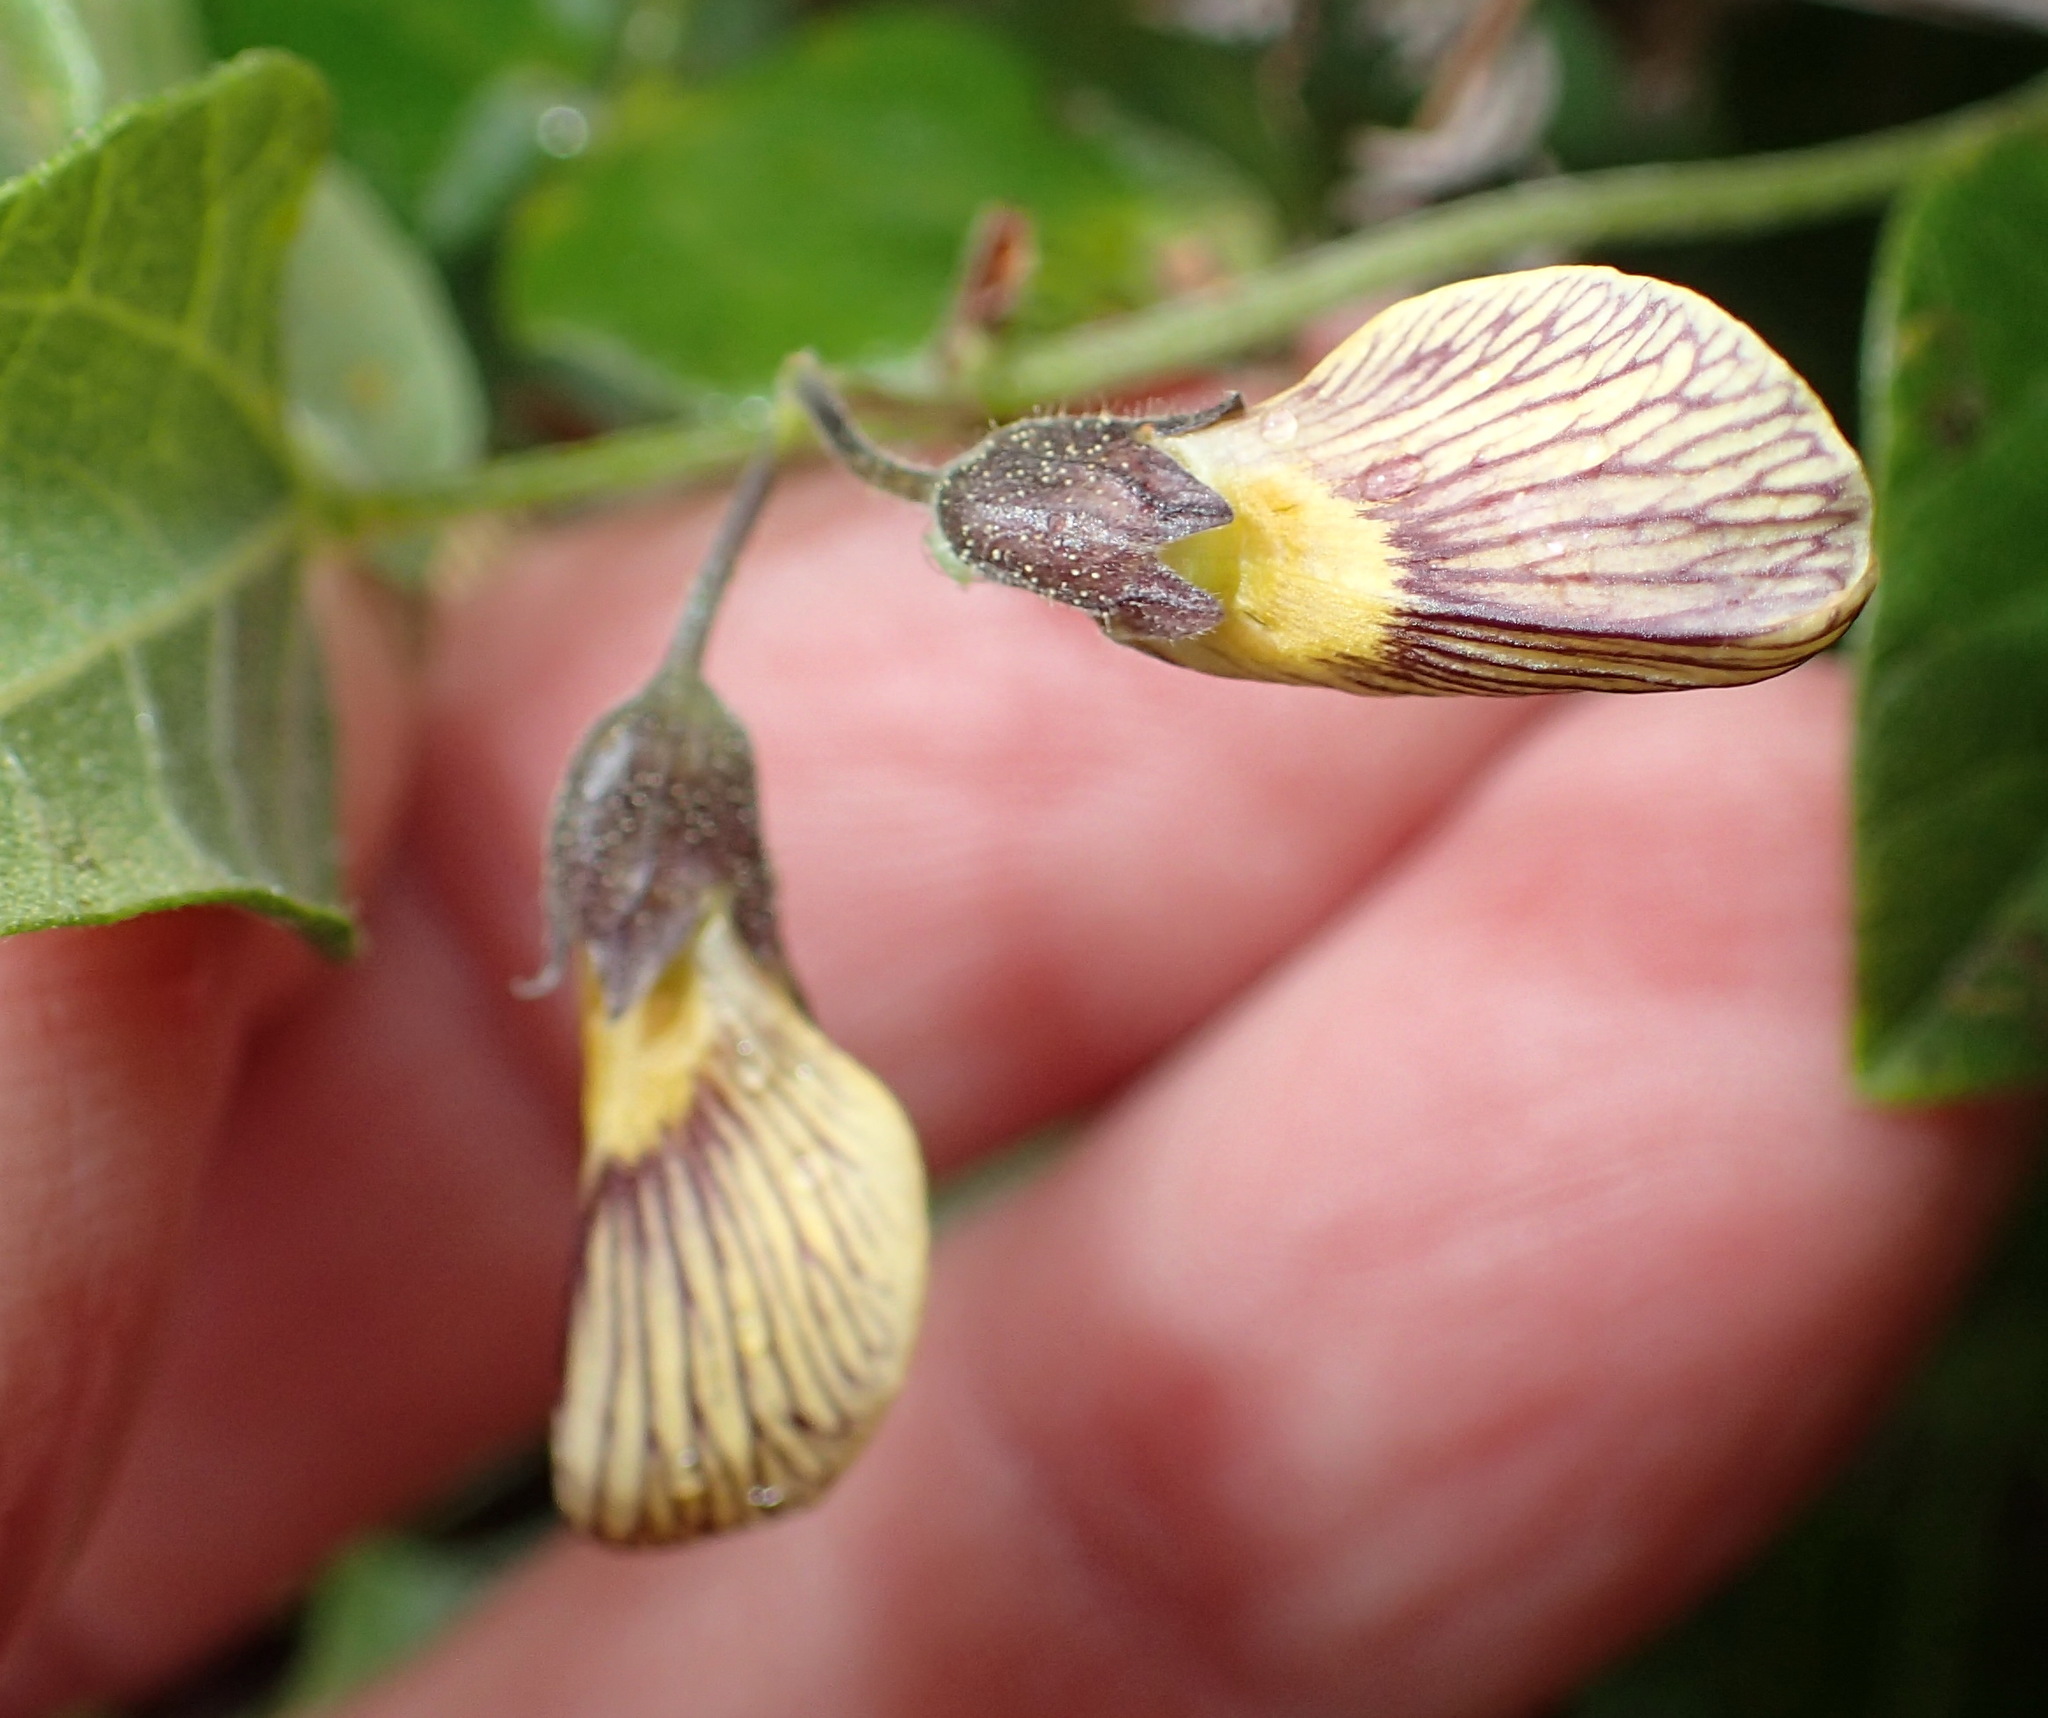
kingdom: Plantae
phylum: Tracheophyta
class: Magnoliopsida
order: Fabales
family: Fabaceae
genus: Rhynchosia
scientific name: Rhynchosia caribaea
